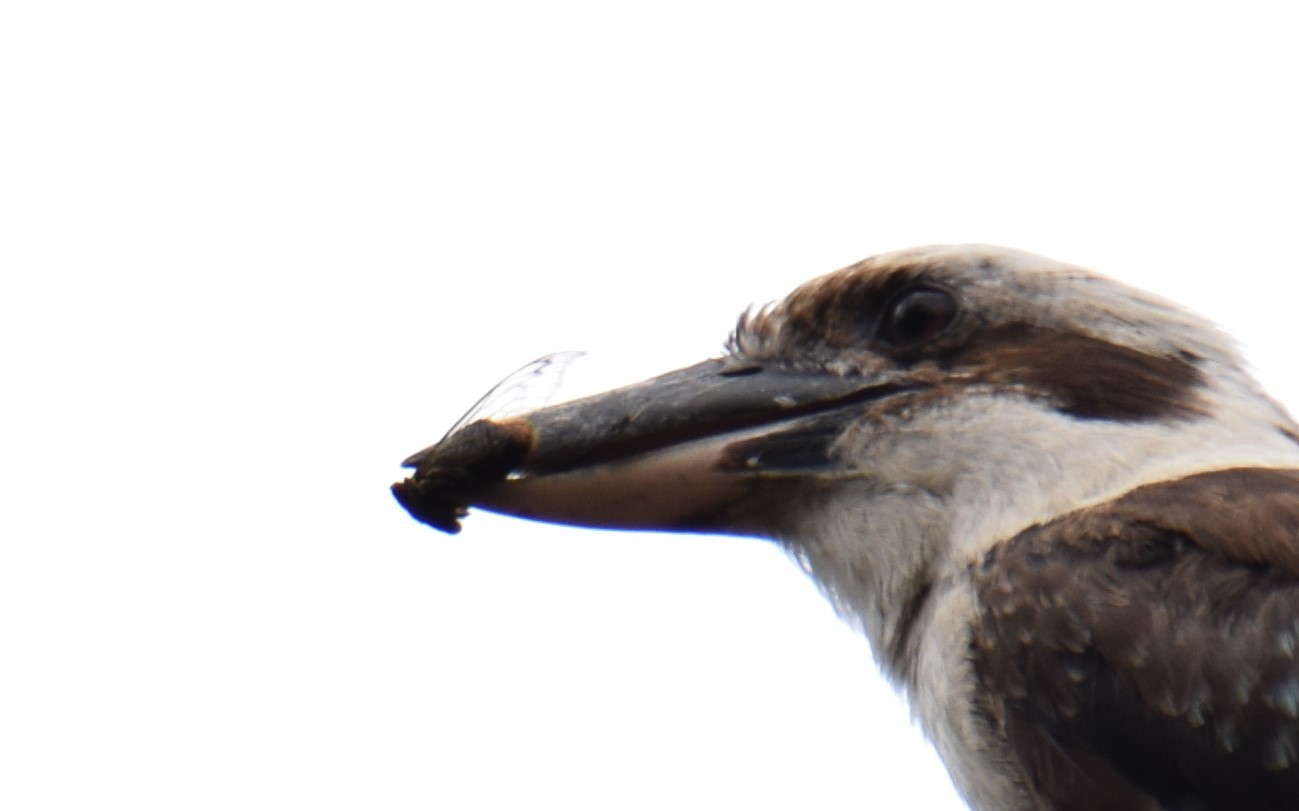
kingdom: Animalia
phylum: Arthropoda
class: Insecta
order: Hemiptera
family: Cicadidae
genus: Psaltoda
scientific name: Psaltoda plaga
